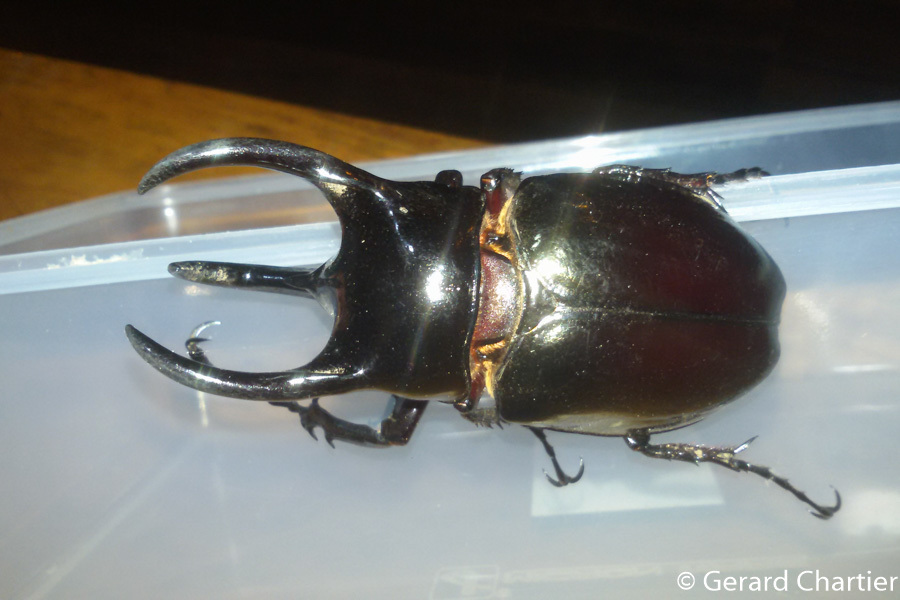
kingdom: Animalia
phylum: Arthropoda
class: Insecta
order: Coleoptera
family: Scarabaeidae
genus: Chalcosoma
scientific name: Chalcosoma chiron
